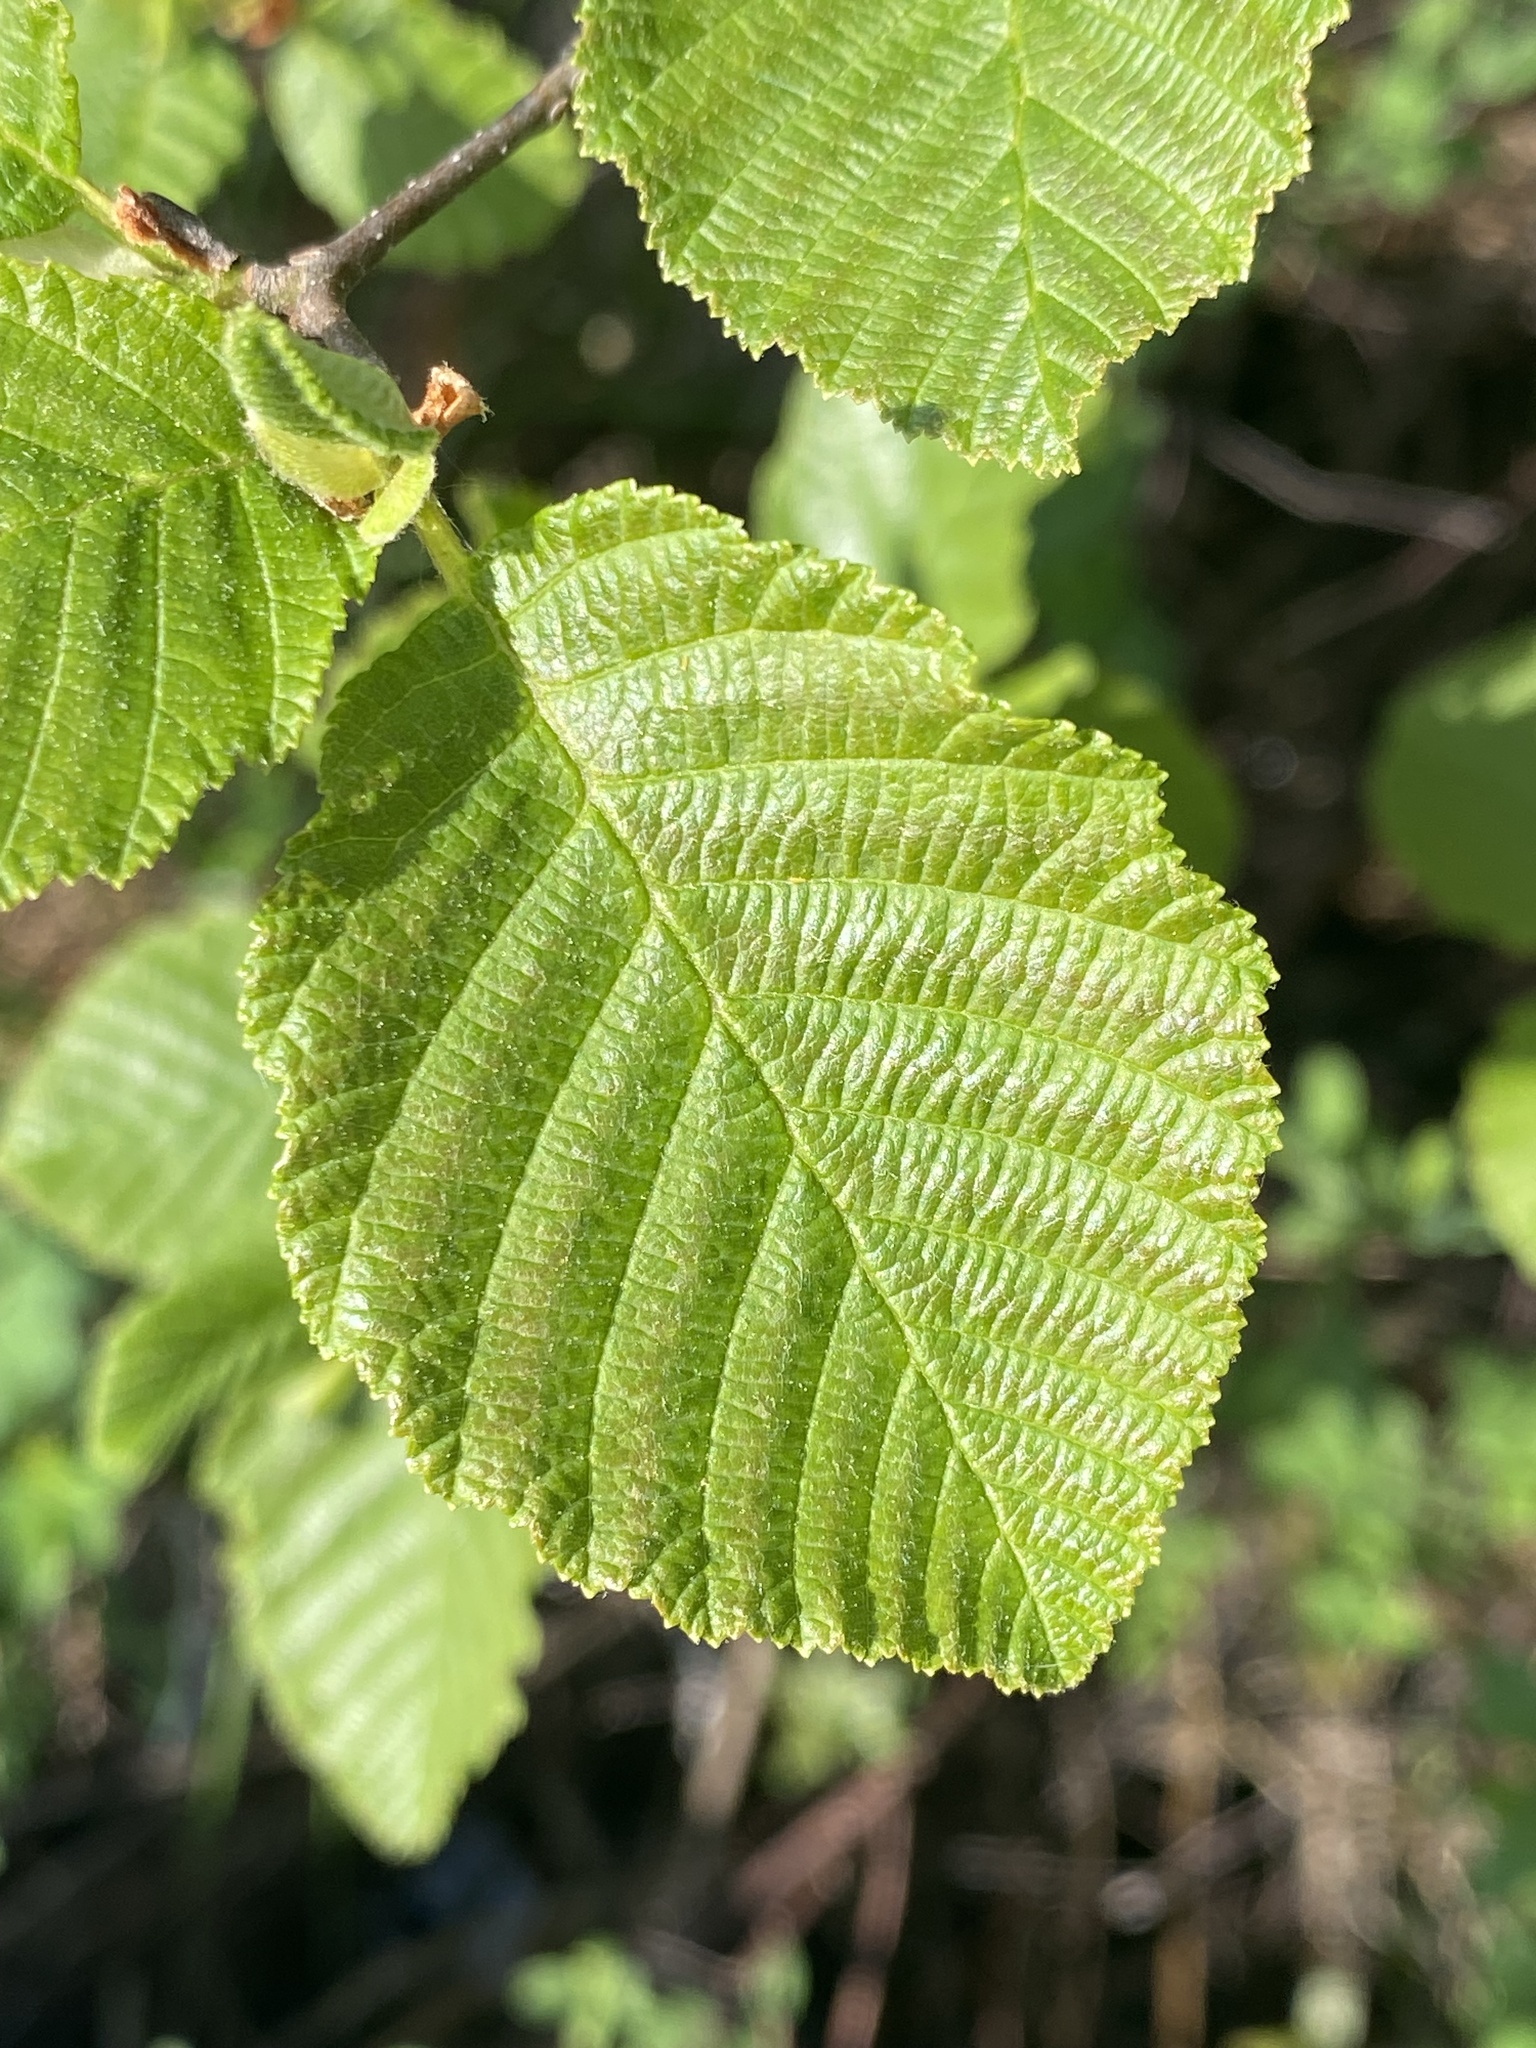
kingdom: Plantae
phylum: Tracheophyta
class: Magnoliopsida
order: Fagales
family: Betulaceae
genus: Alnus
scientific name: Alnus incana
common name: Grey alder
